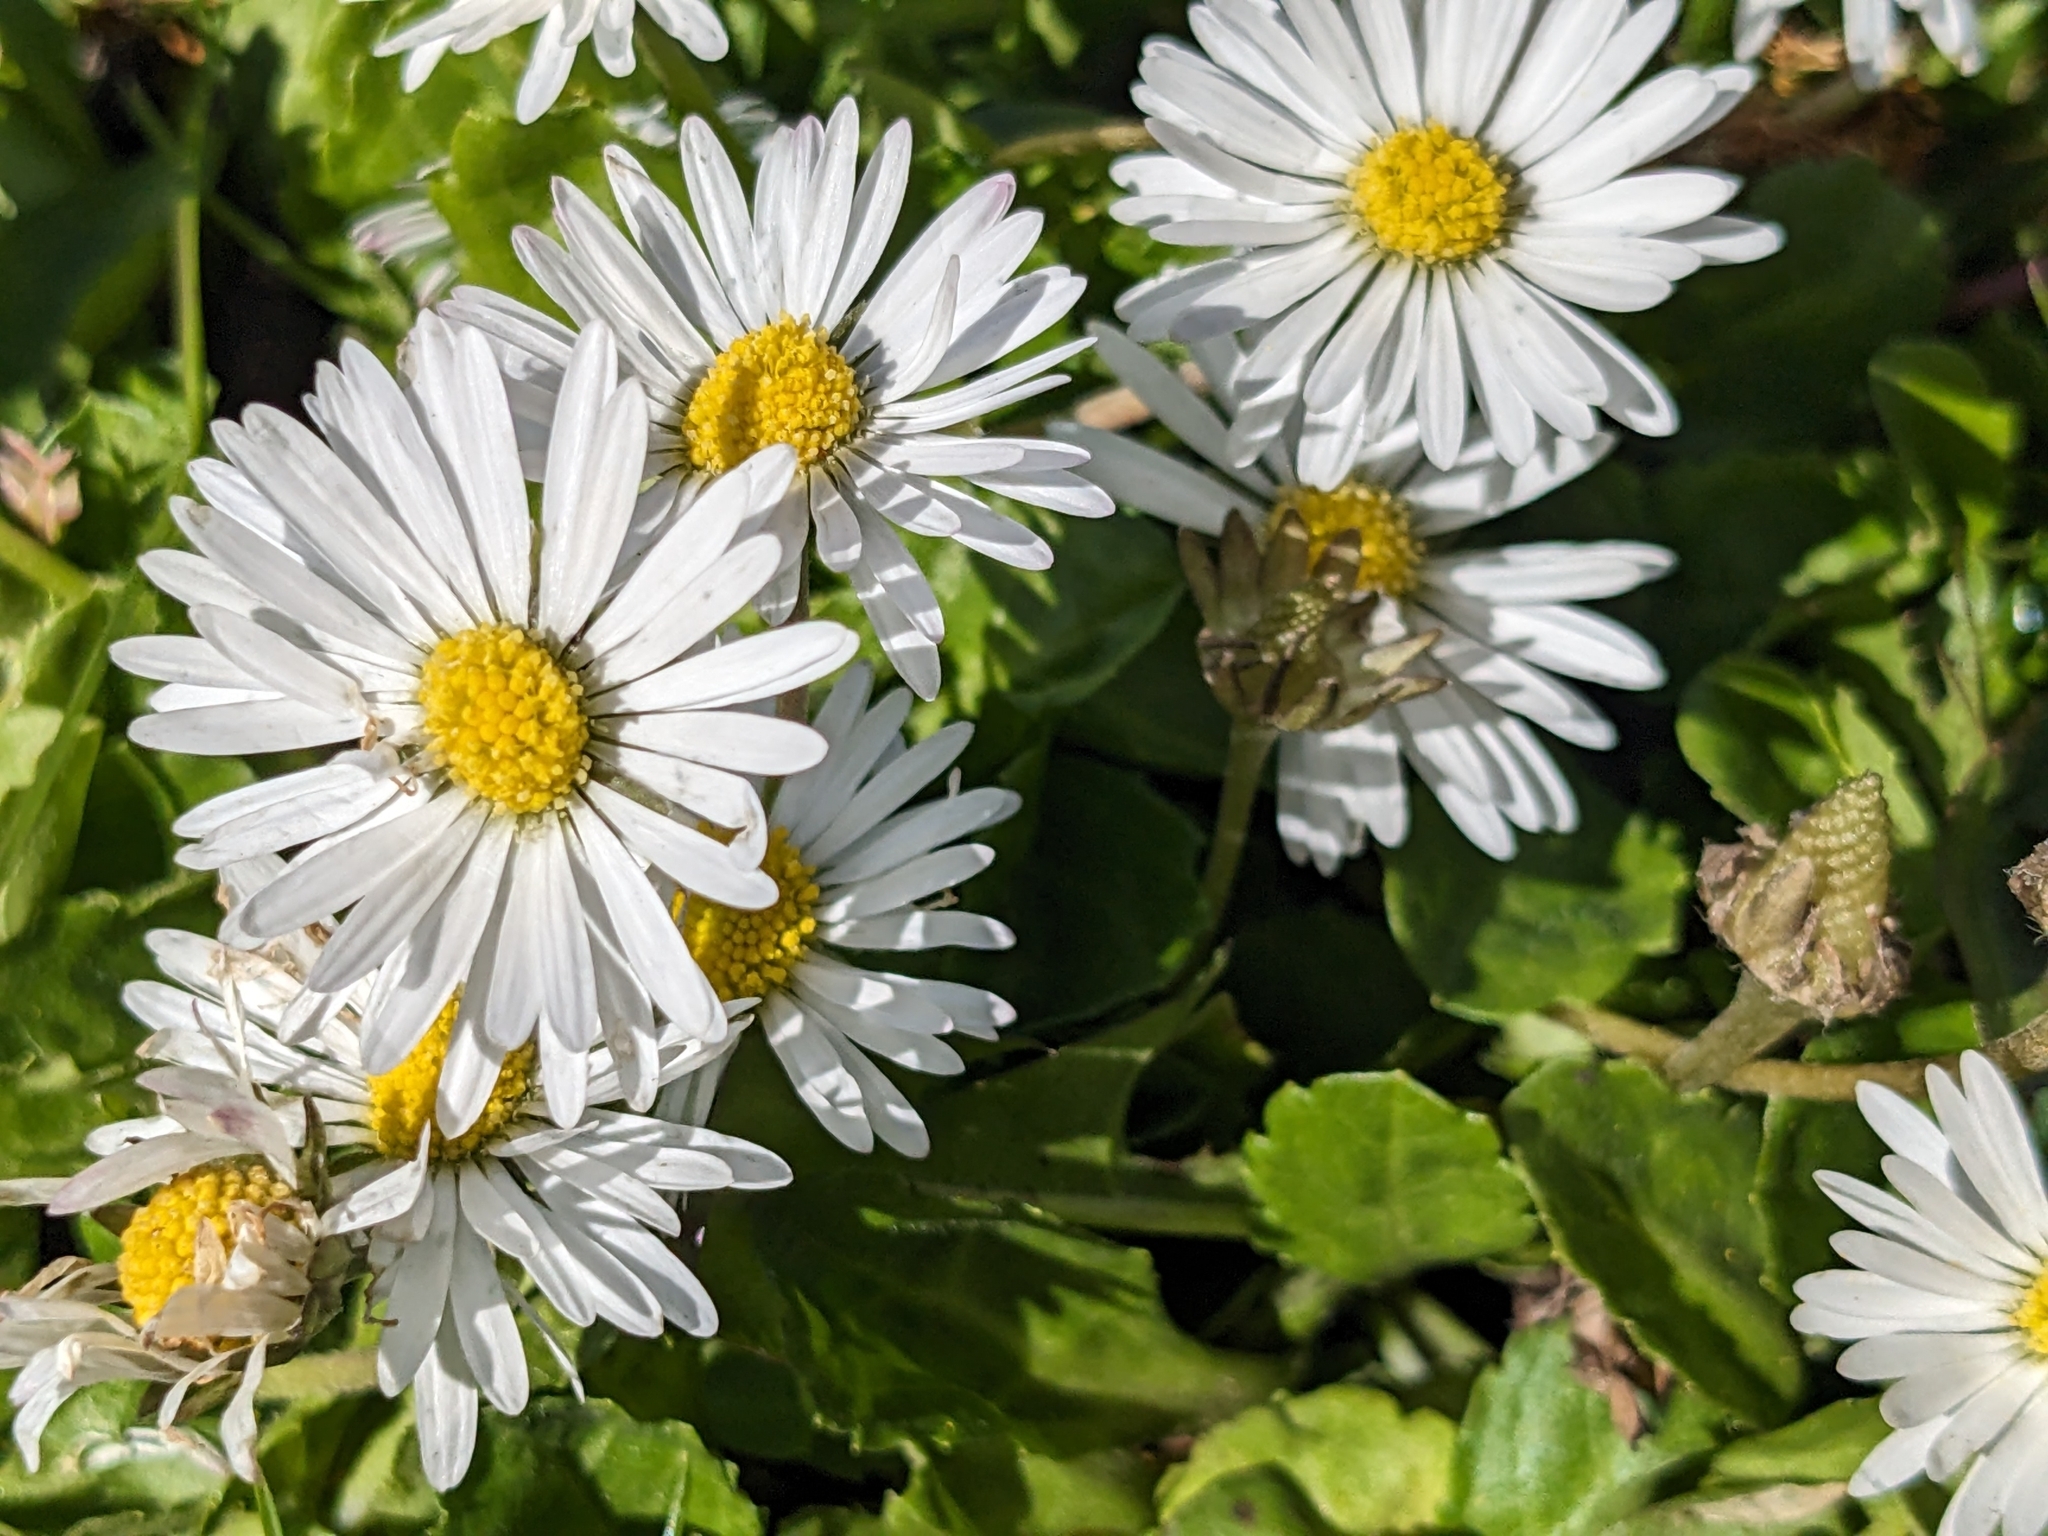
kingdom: Plantae
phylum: Tracheophyta
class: Magnoliopsida
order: Asterales
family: Asteraceae
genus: Bellis
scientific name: Bellis perennis
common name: Lawndaisy
